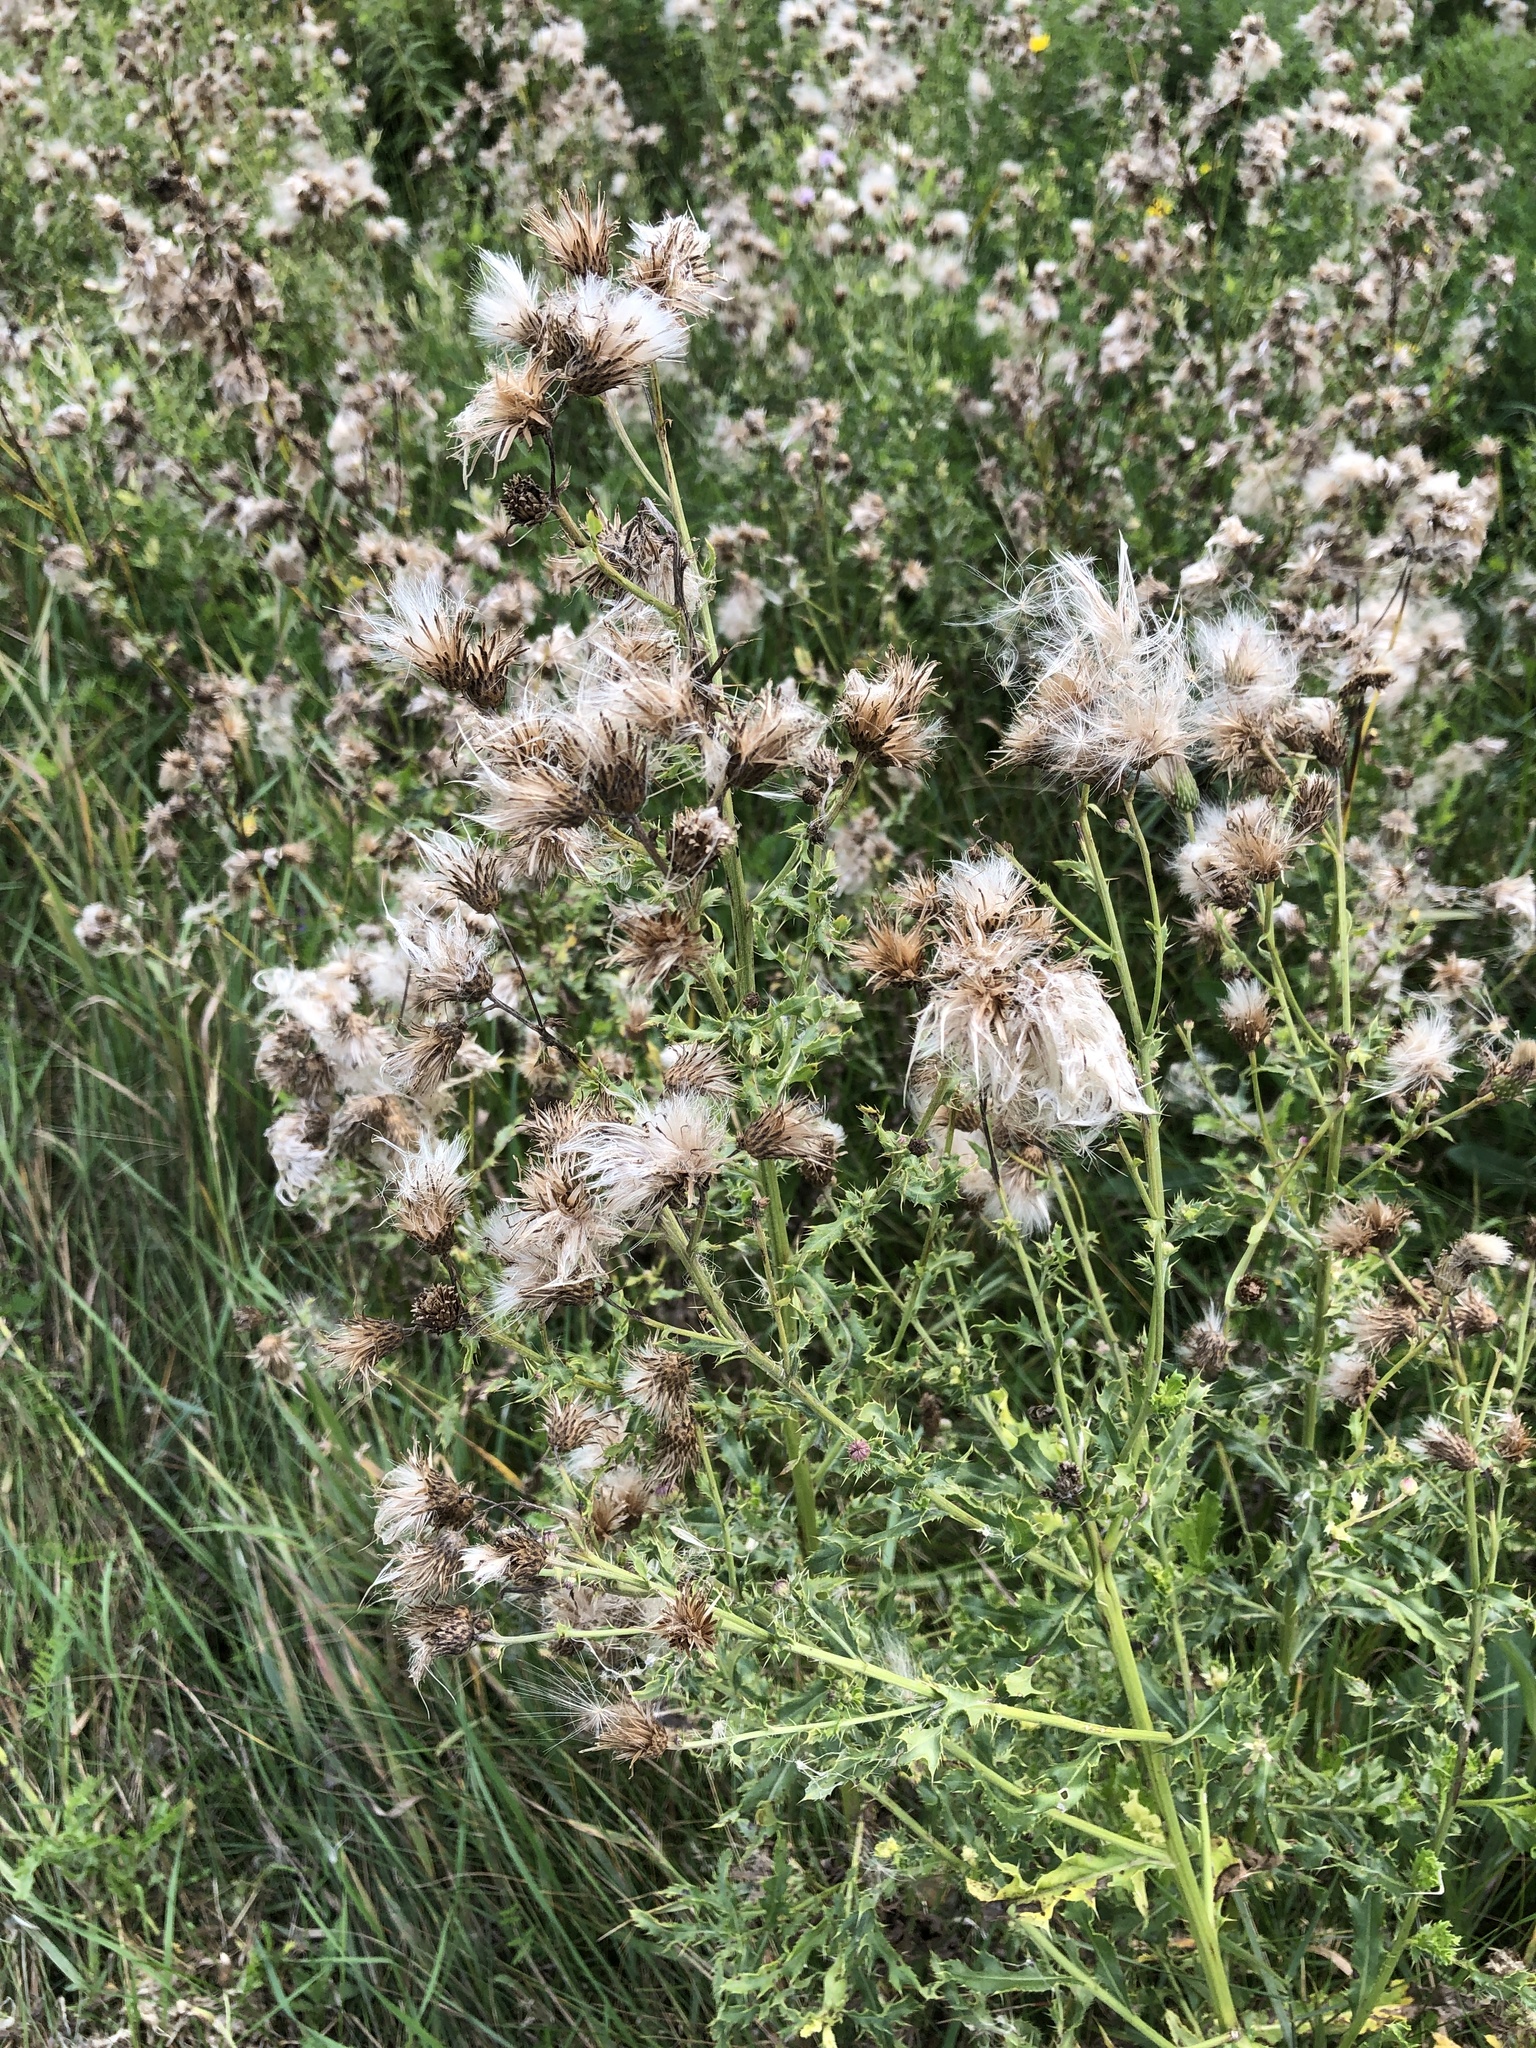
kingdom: Plantae
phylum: Tracheophyta
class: Magnoliopsida
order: Asterales
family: Asteraceae
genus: Cirsium
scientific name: Cirsium arvense
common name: Creeping thistle
